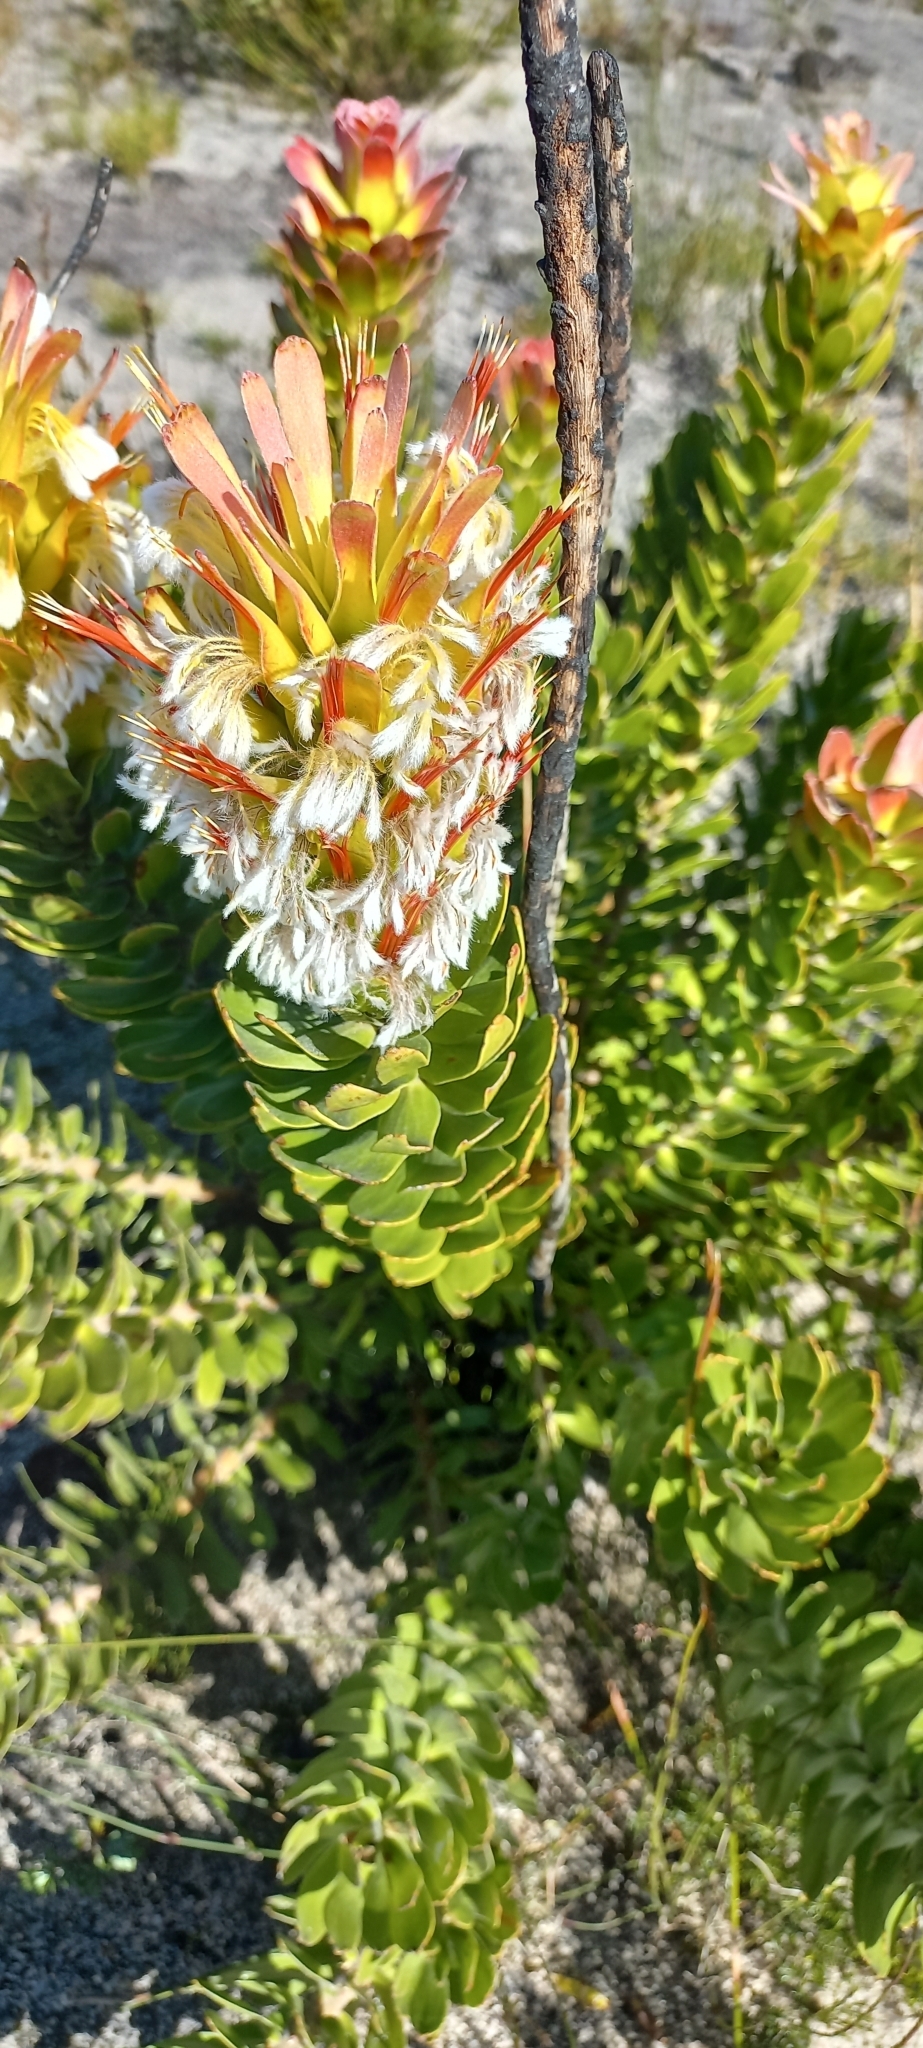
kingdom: Plantae
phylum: Tracheophyta
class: Magnoliopsida
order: Proteales
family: Proteaceae
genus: Mimetes
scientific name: Mimetes cucullatus
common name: Common pagoda
